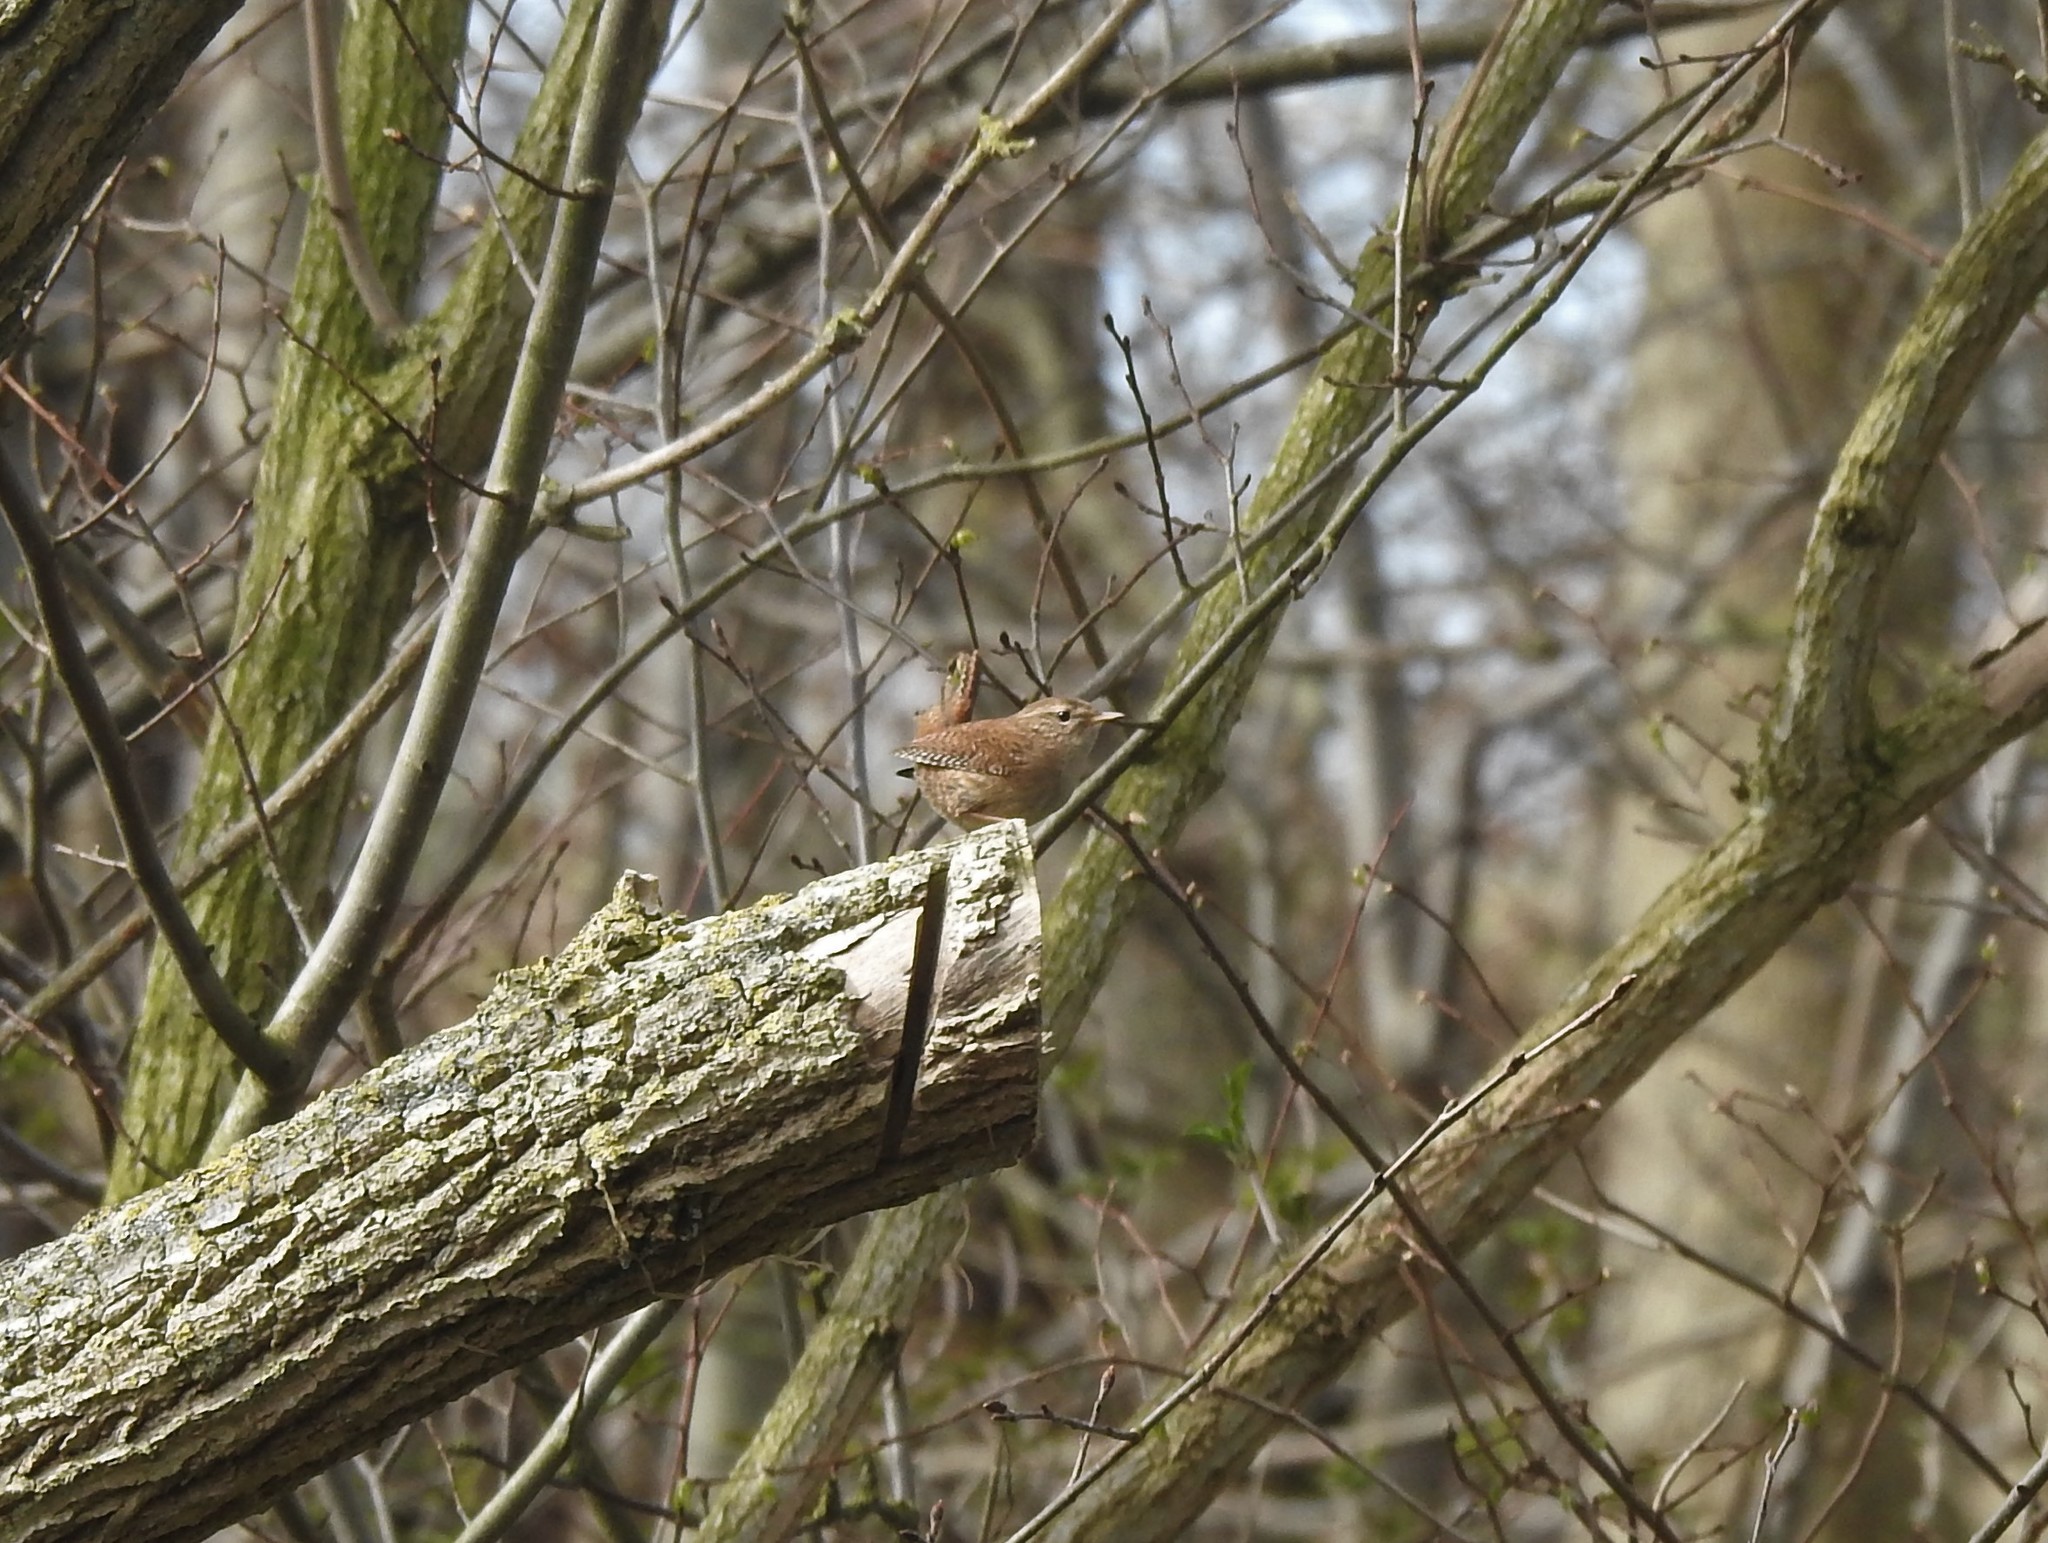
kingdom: Animalia
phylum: Chordata
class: Aves
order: Passeriformes
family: Troglodytidae
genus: Troglodytes
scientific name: Troglodytes troglodytes
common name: Eurasian wren
